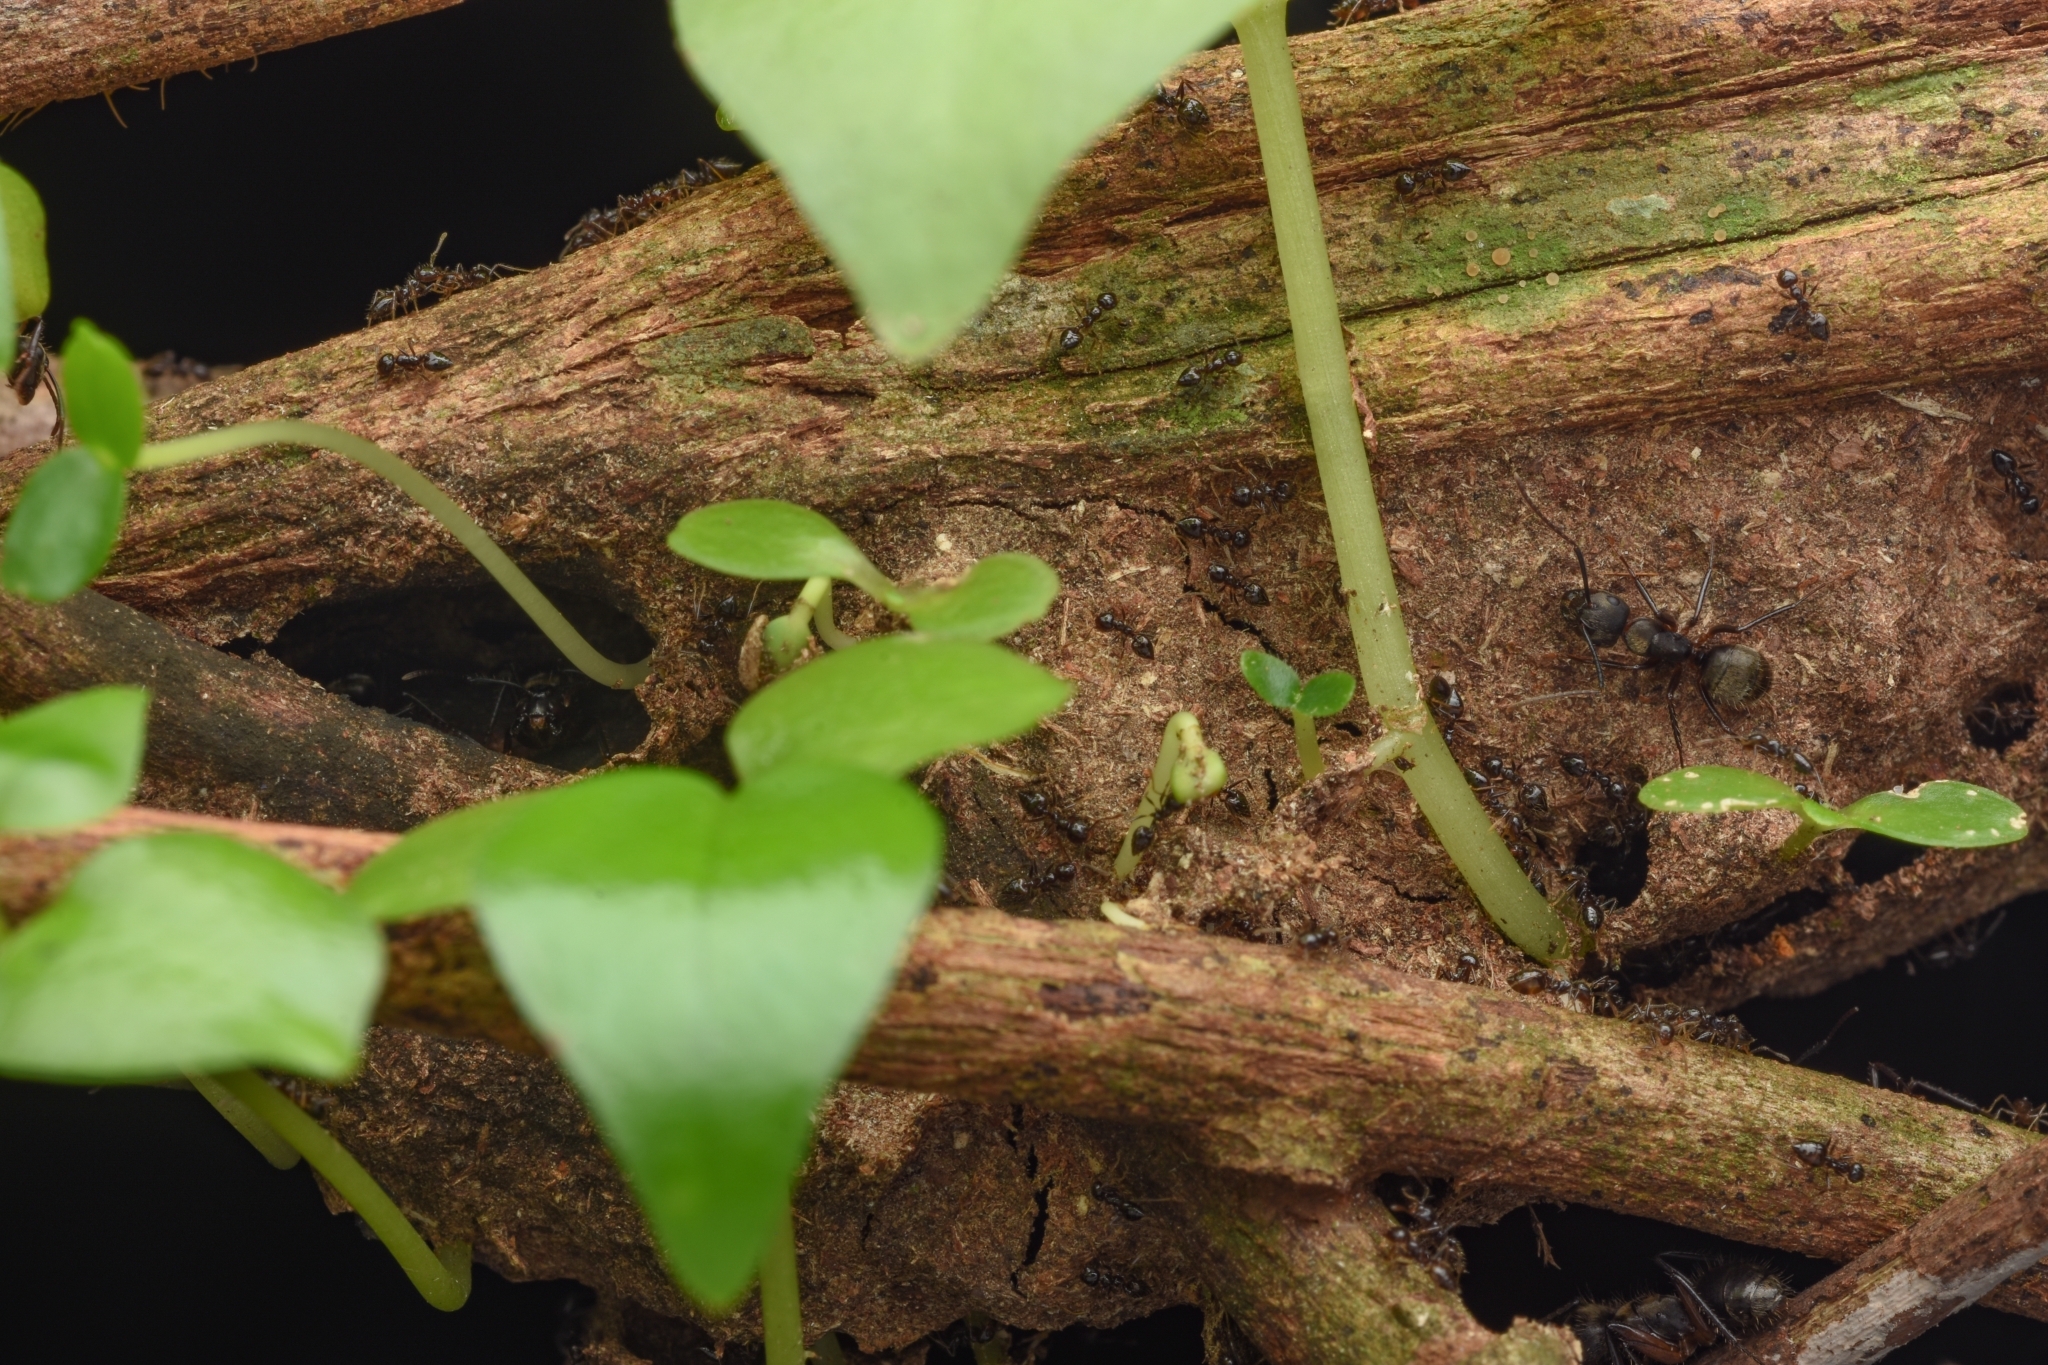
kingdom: Animalia
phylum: Arthropoda
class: Insecta
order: Hymenoptera
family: Formicidae
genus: Camponotus
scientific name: Camponotus femoratus
